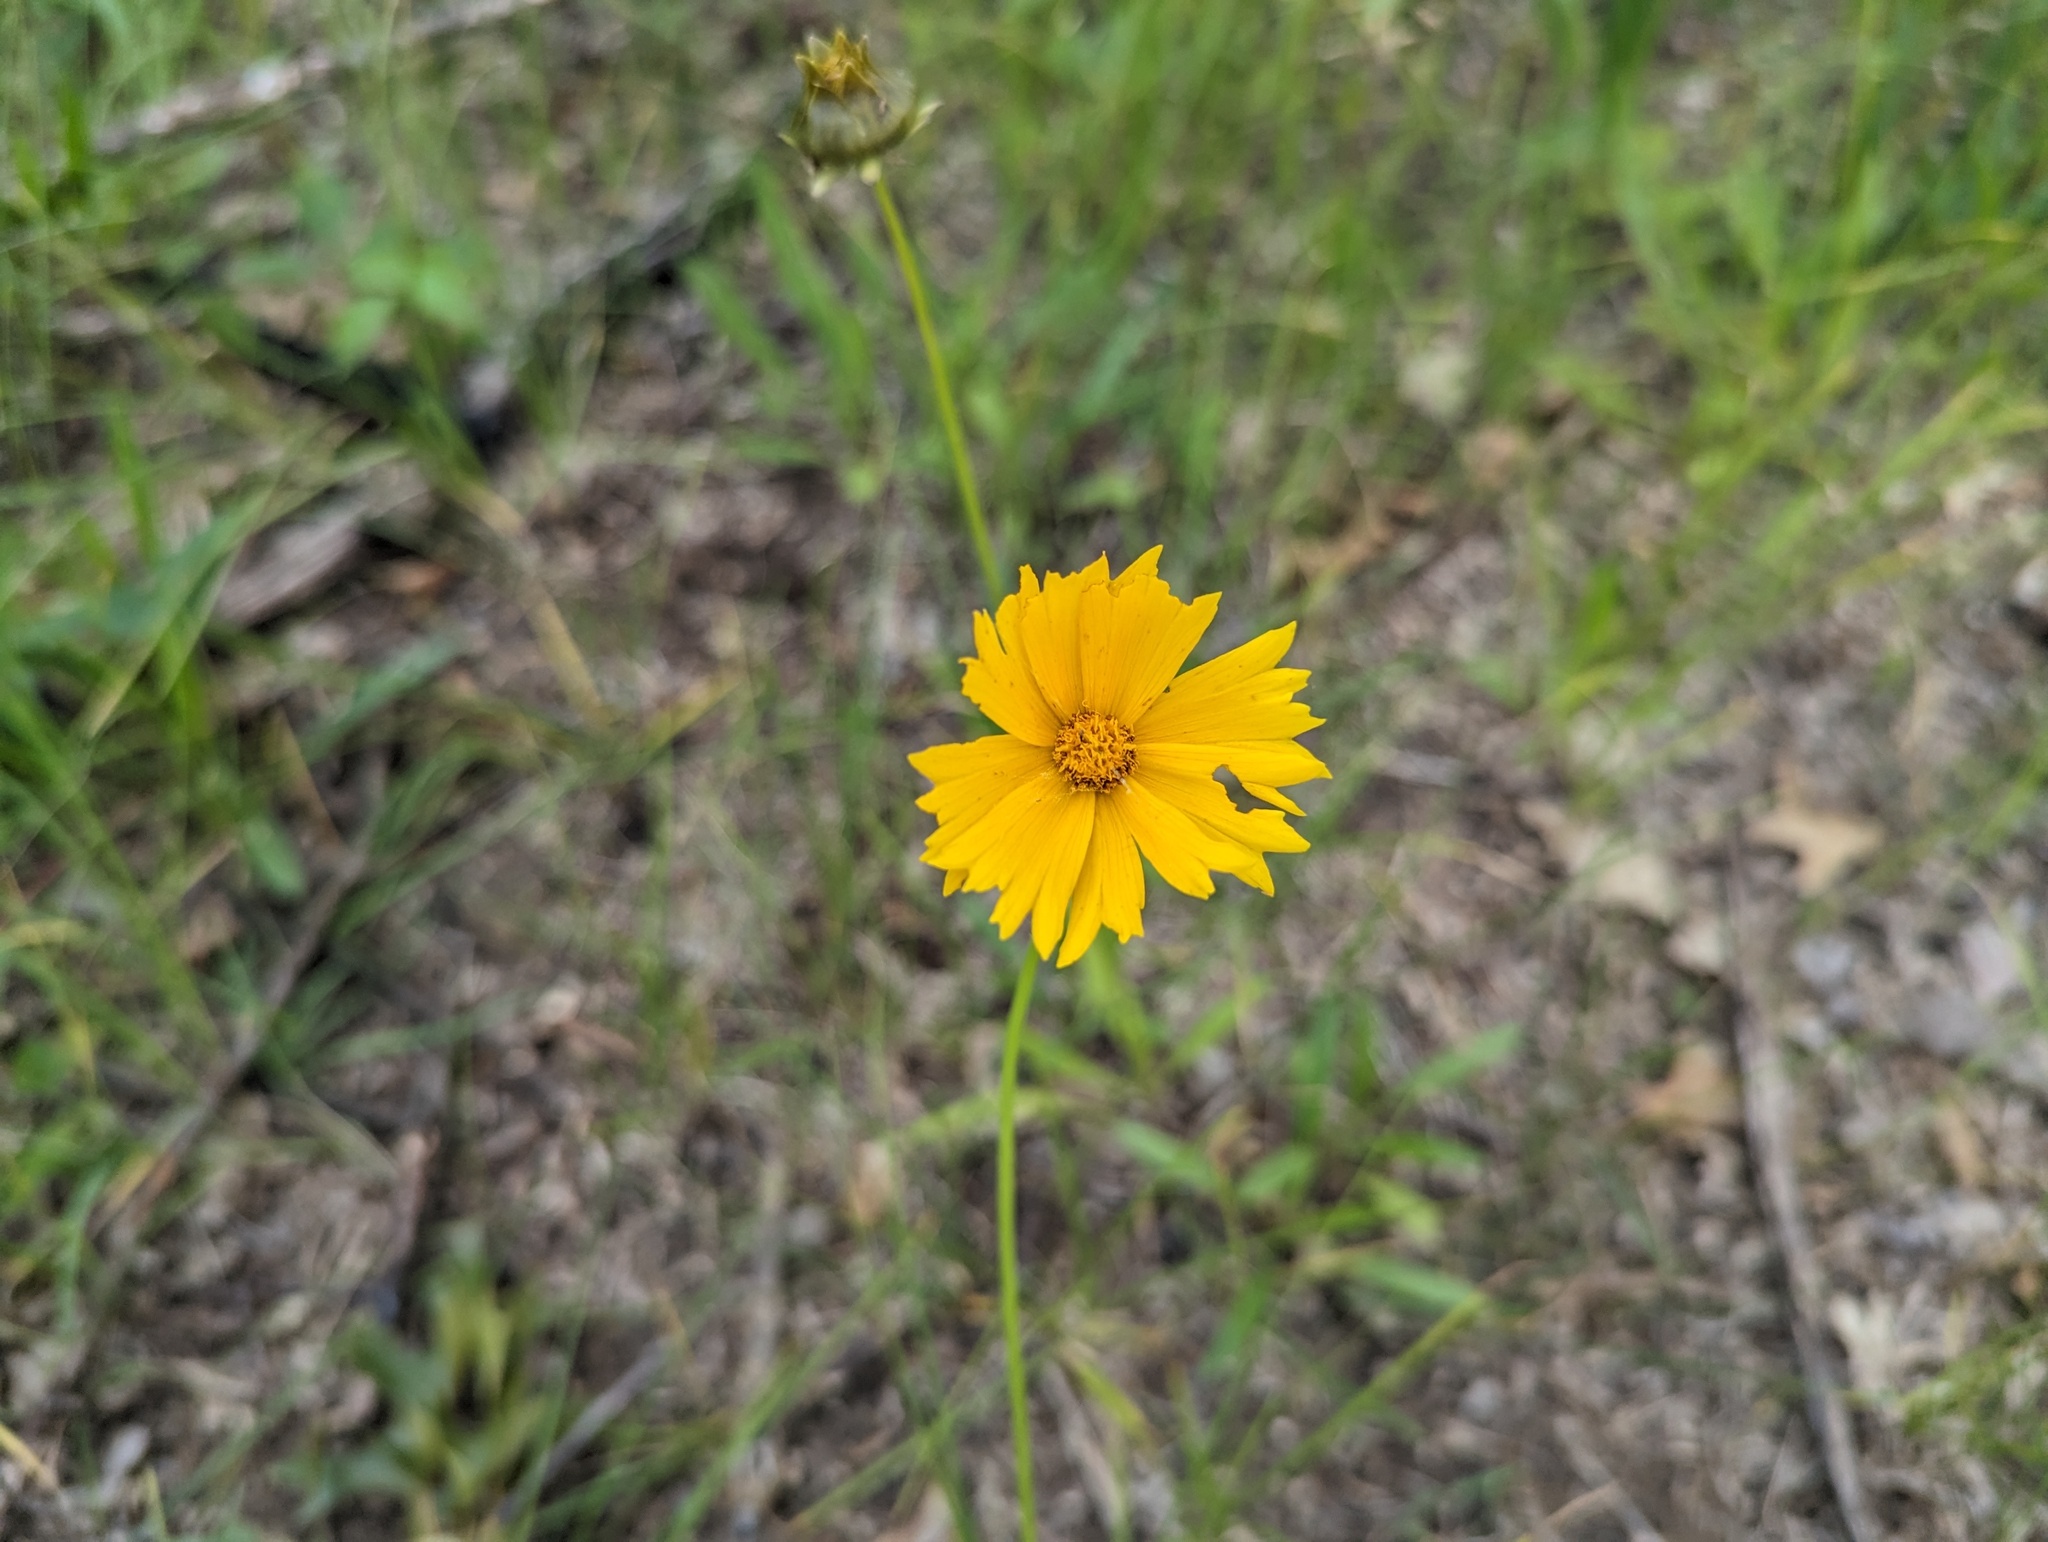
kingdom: Plantae
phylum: Tracheophyta
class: Magnoliopsida
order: Asterales
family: Asteraceae
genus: Coreopsis
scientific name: Coreopsis lanceolata
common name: Garden coreopsis
